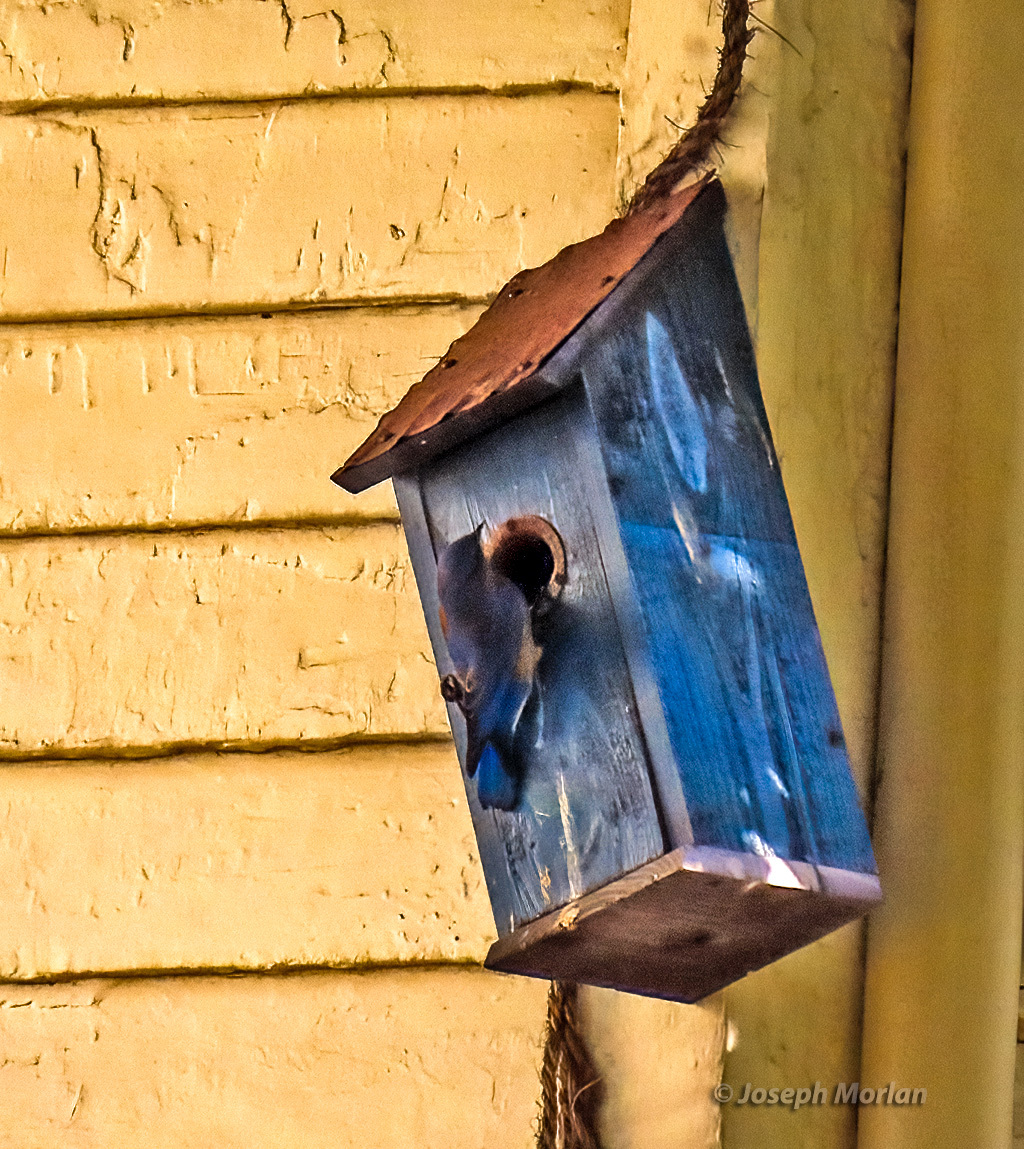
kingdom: Animalia
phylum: Chordata
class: Aves
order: Passeriformes
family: Turdidae
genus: Sialia
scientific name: Sialia mexicana
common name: Western bluebird
